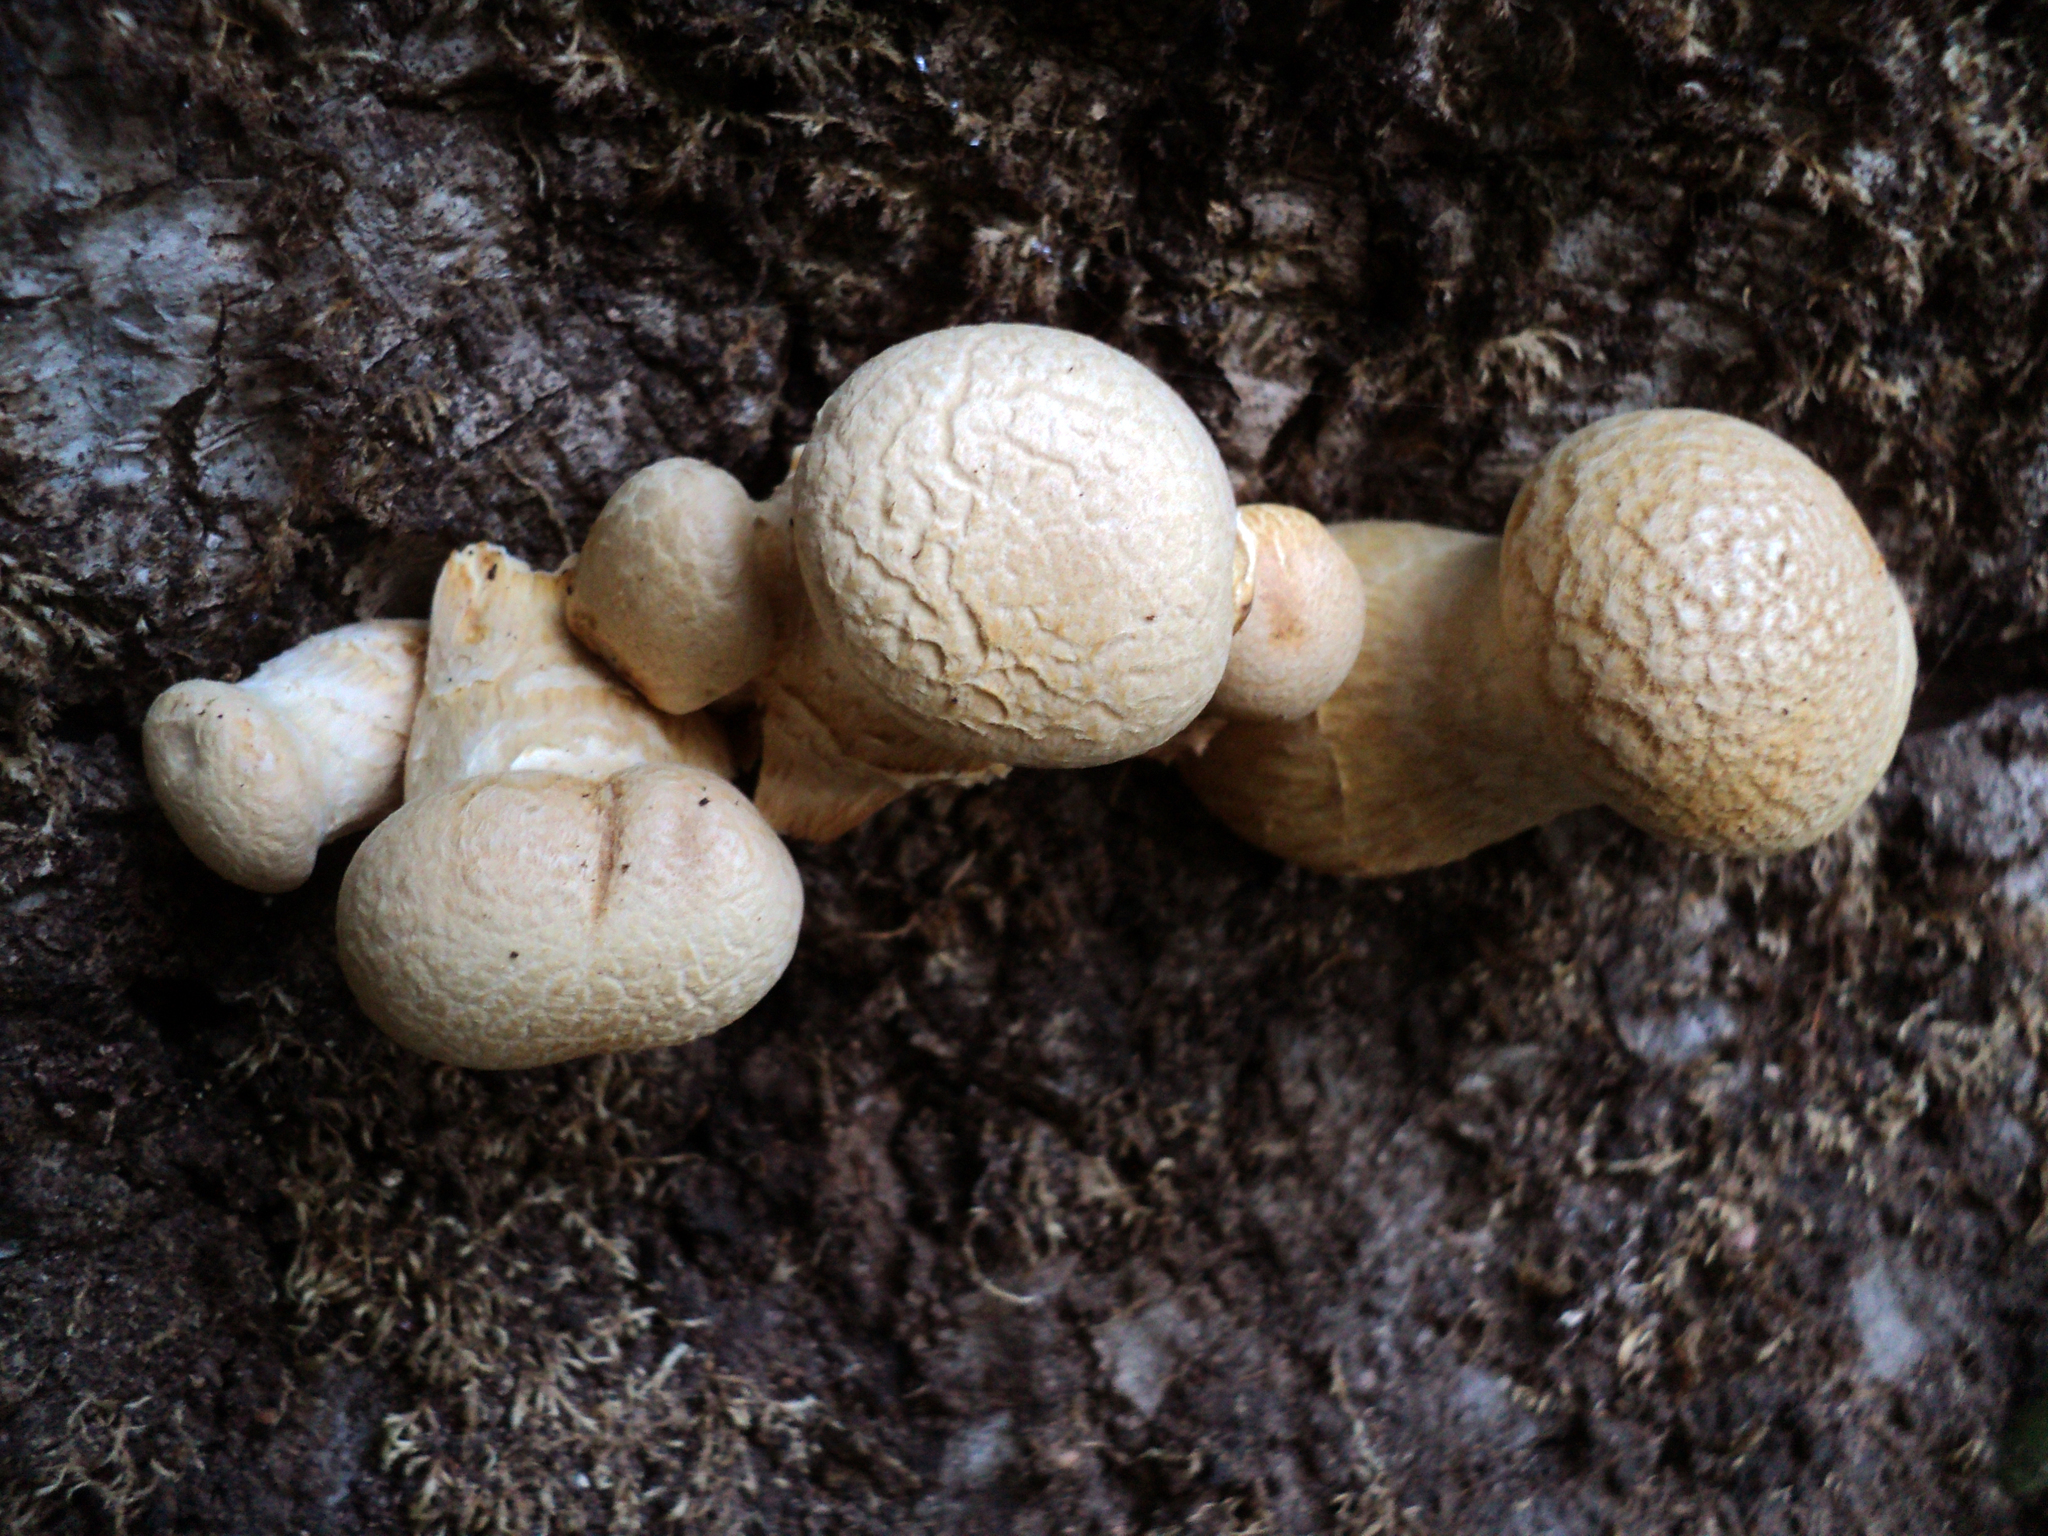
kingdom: Fungi
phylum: Basidiomycota
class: Agaricomycetes
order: Agaricales
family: Hymenogastraceae
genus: Gymnopilus
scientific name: Gymnopilus ventricosus
